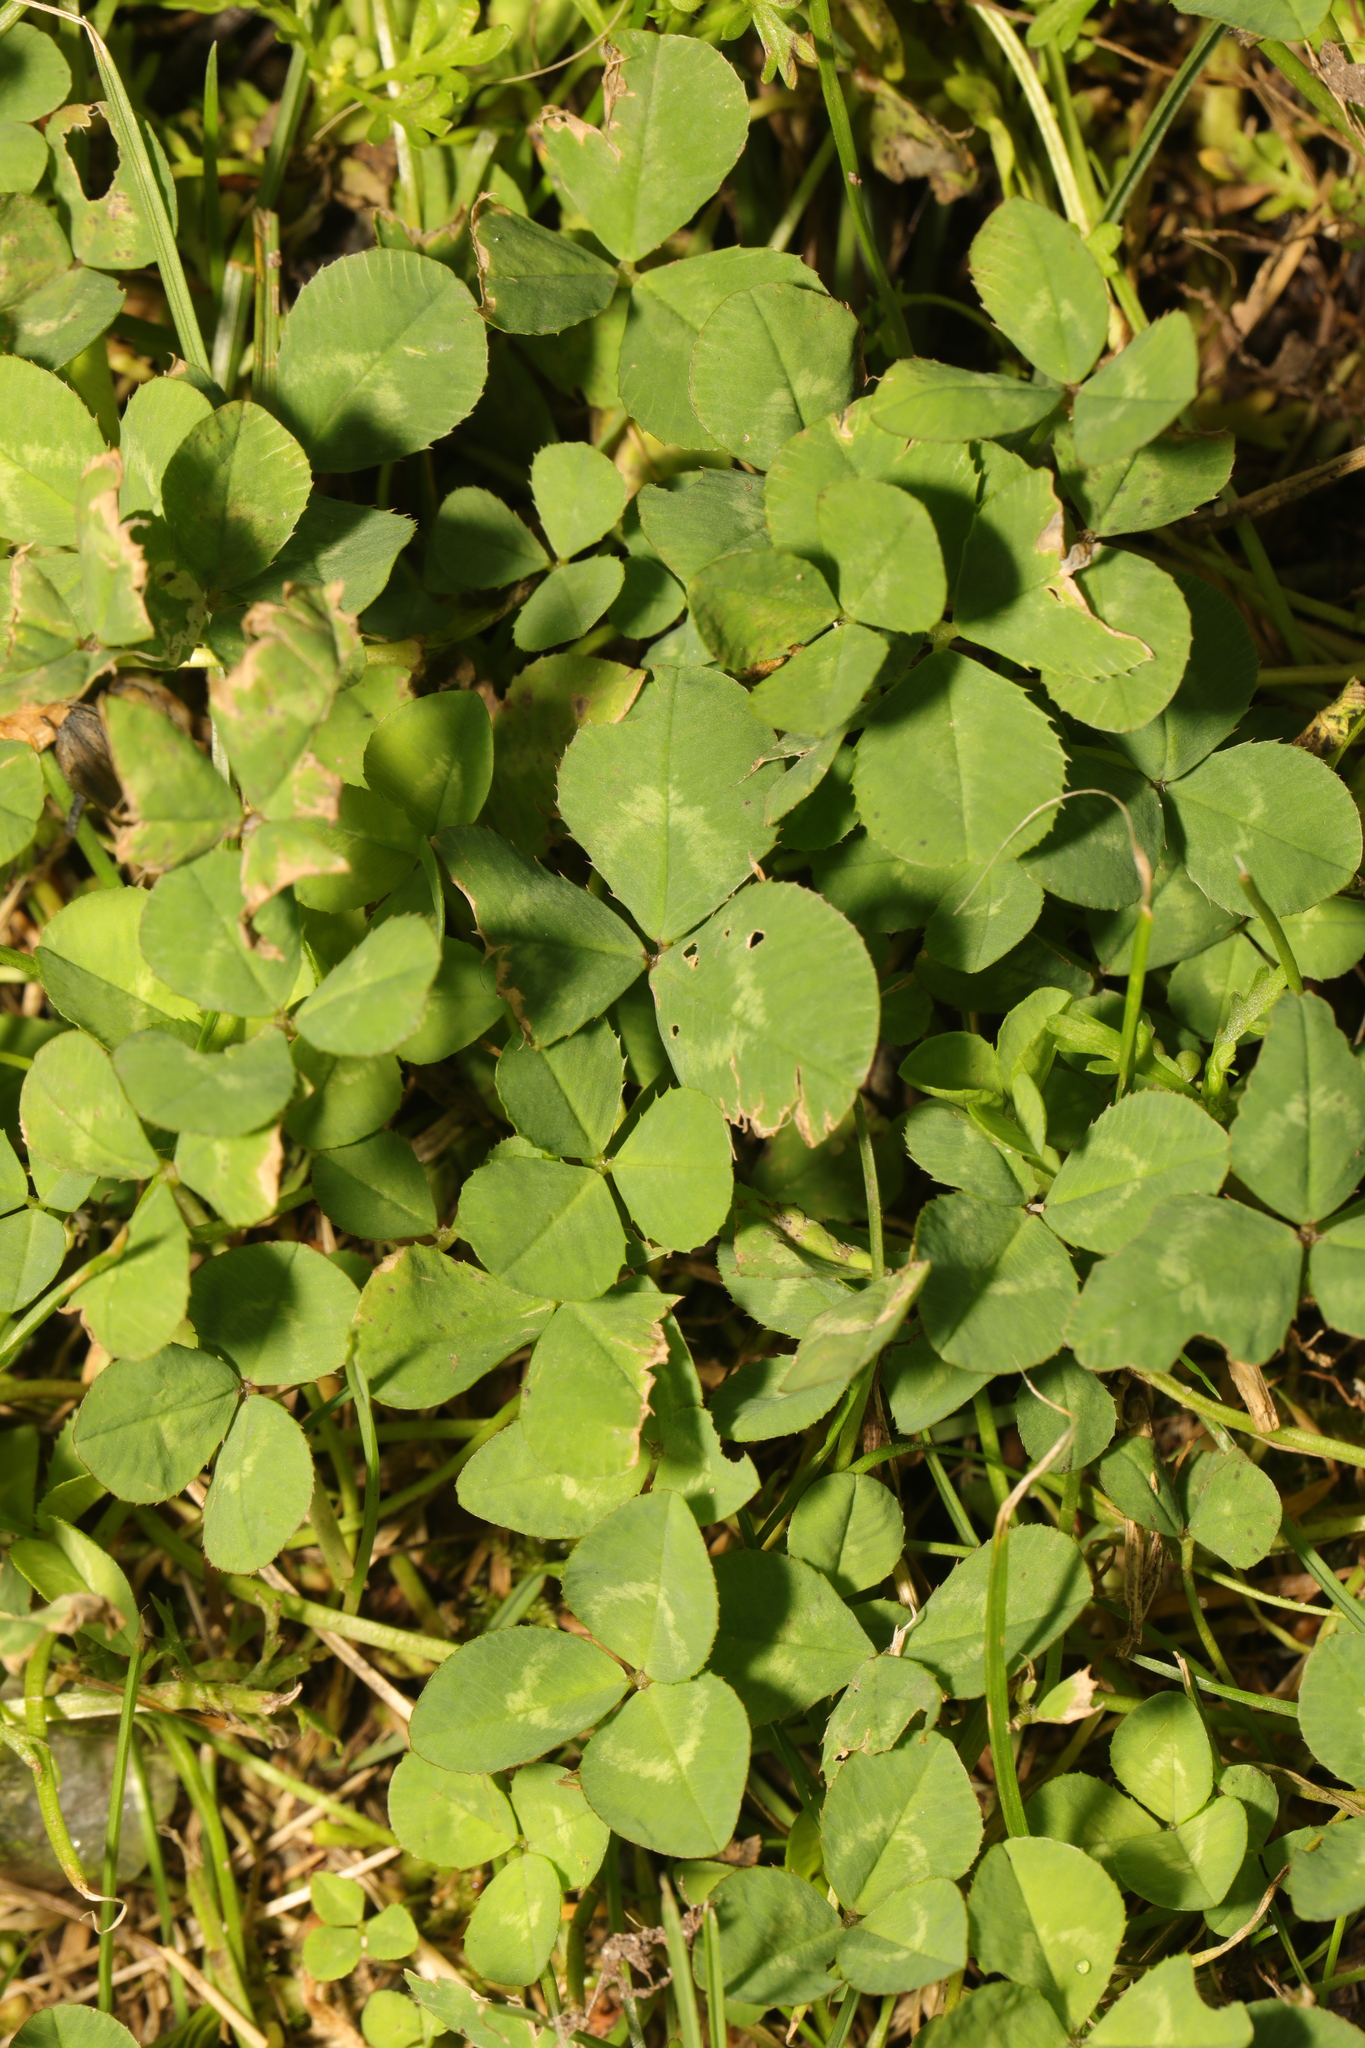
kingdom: Plantae
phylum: Tracheophyta
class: Magnoliopsida
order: Fabales
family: Fabaceae
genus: Trifolium
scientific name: Trifolium repens
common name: White clover
